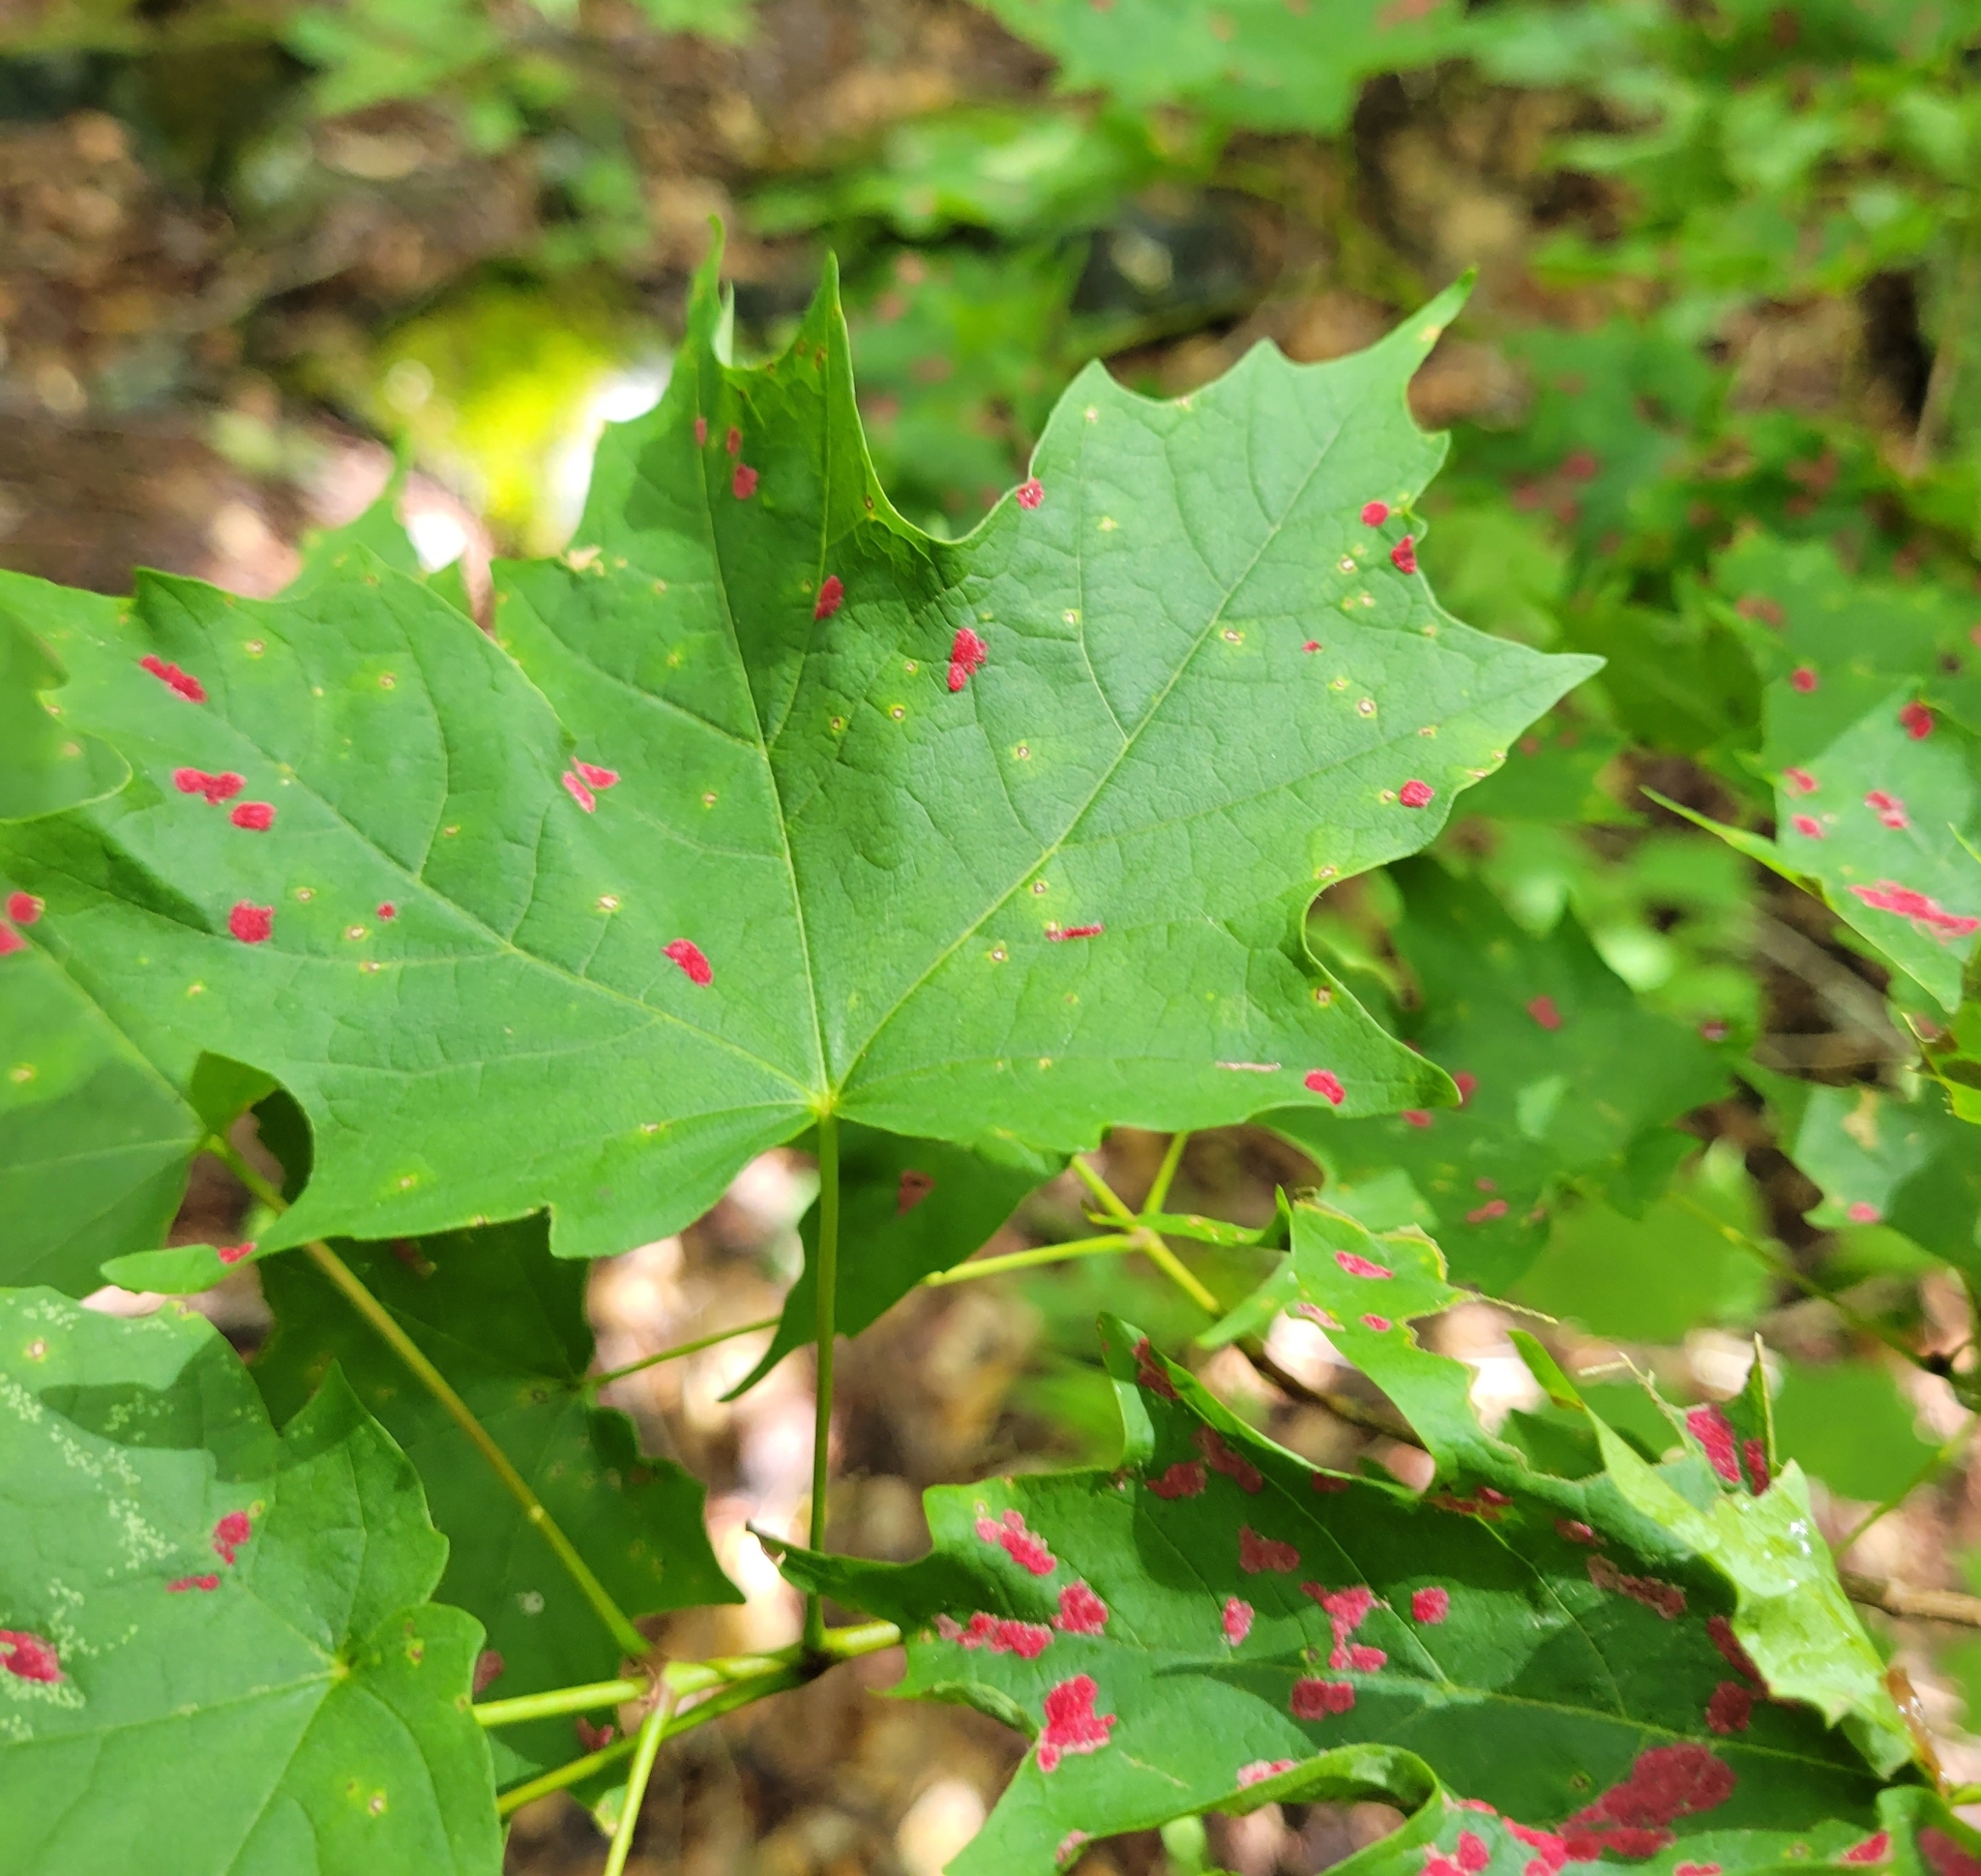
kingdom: Animalia
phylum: Arthropoda
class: Arachnida
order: Trombidiformes
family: Eriophyidae
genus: Aceria
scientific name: Aceria
